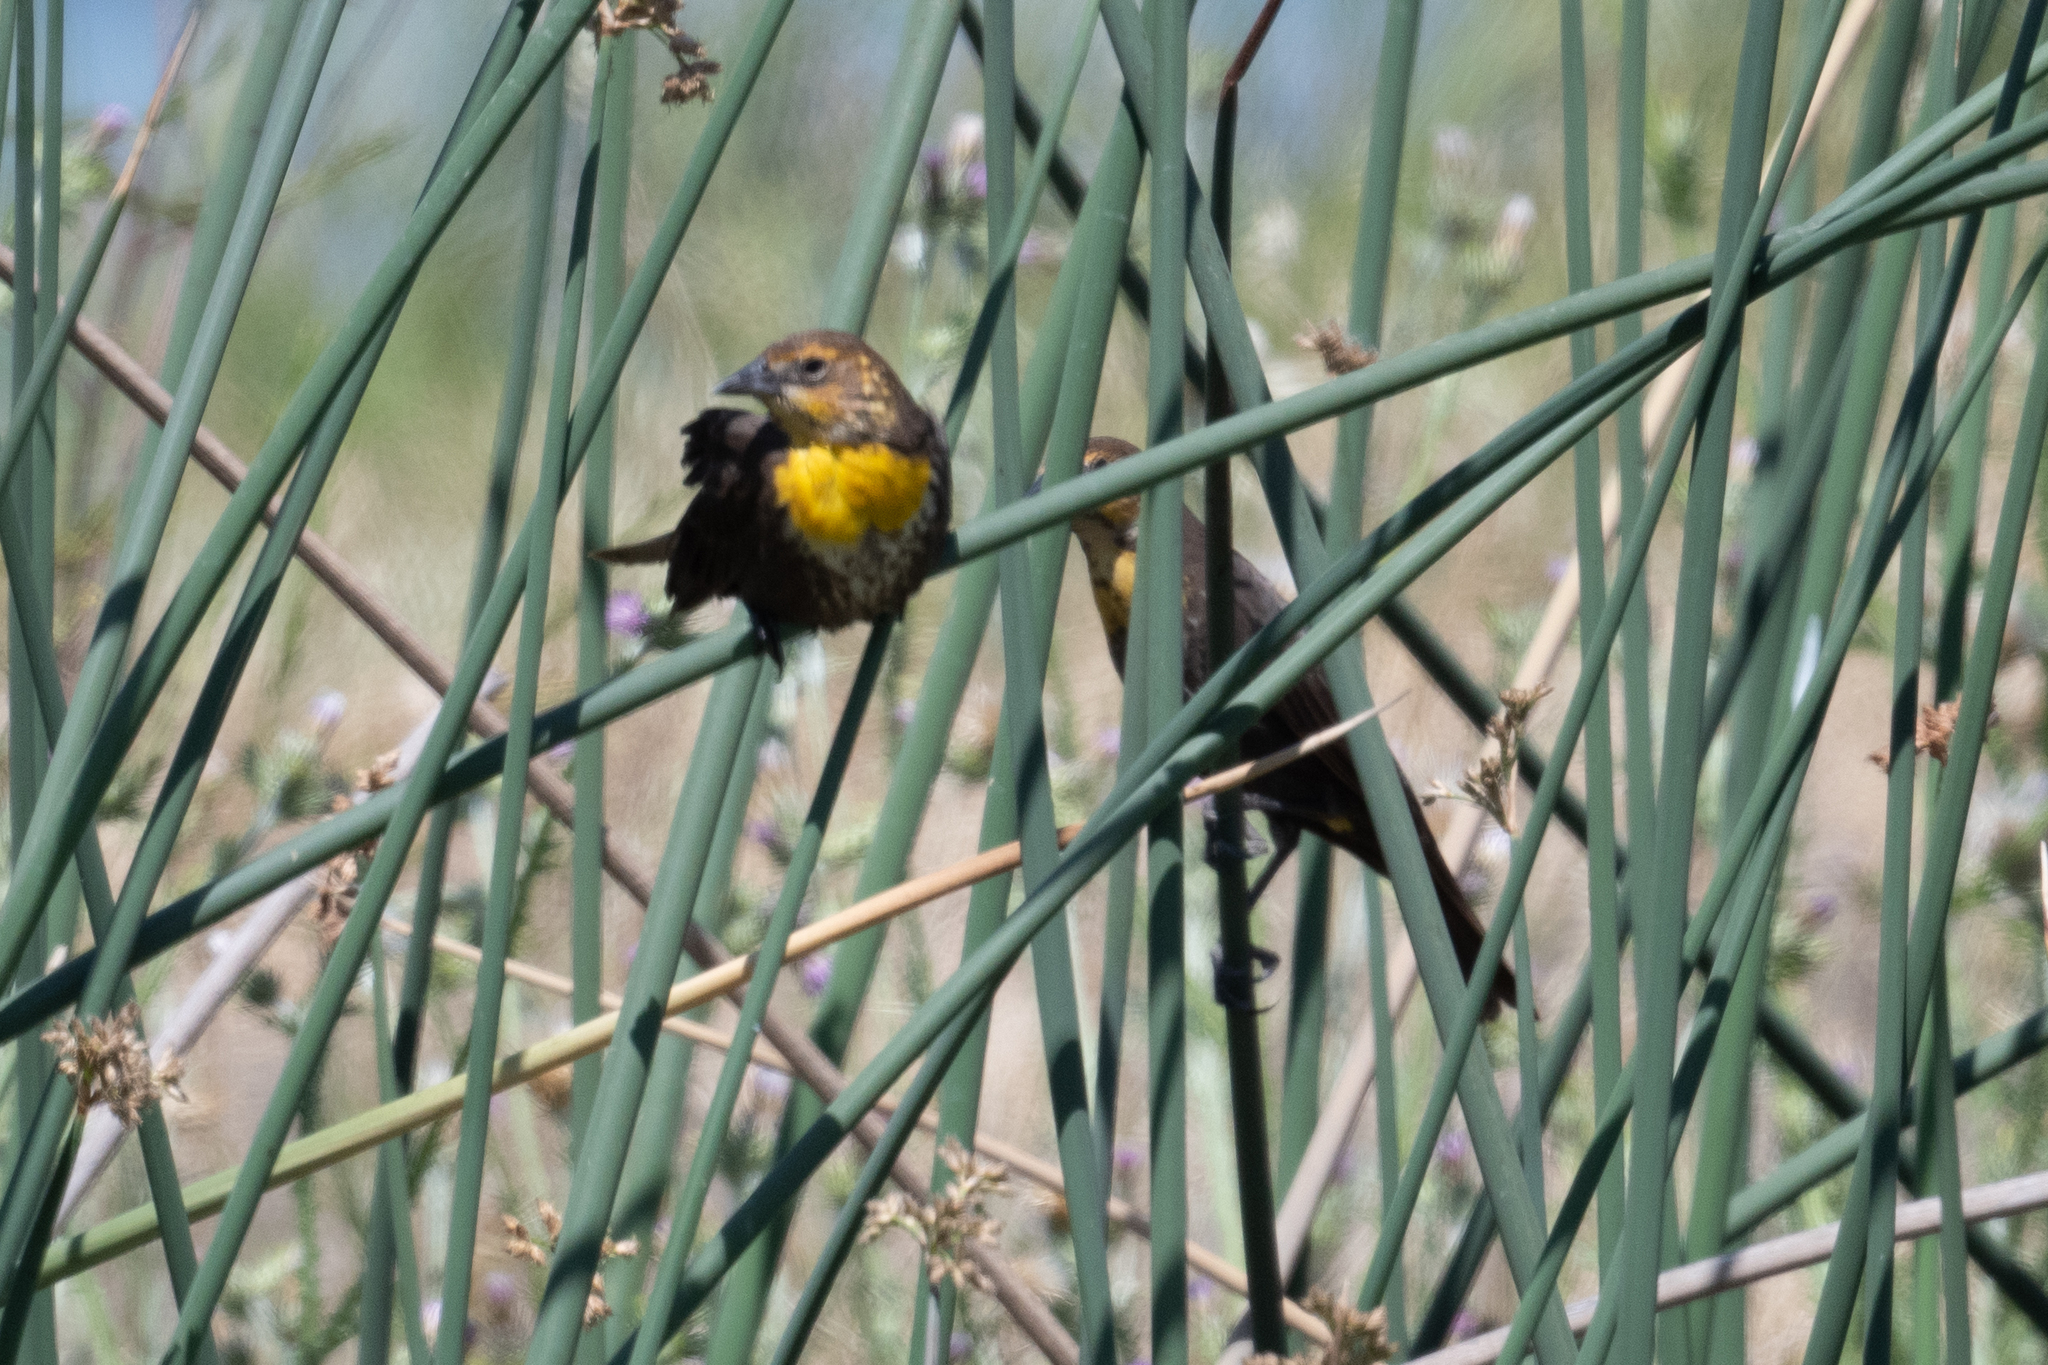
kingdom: Animalia
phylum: Chordata
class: Aves
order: Passeriformes
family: Icteridae
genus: Xanthocephalus
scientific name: Xanthocephalus xanthocephalus
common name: Yellow-headed blackbird
